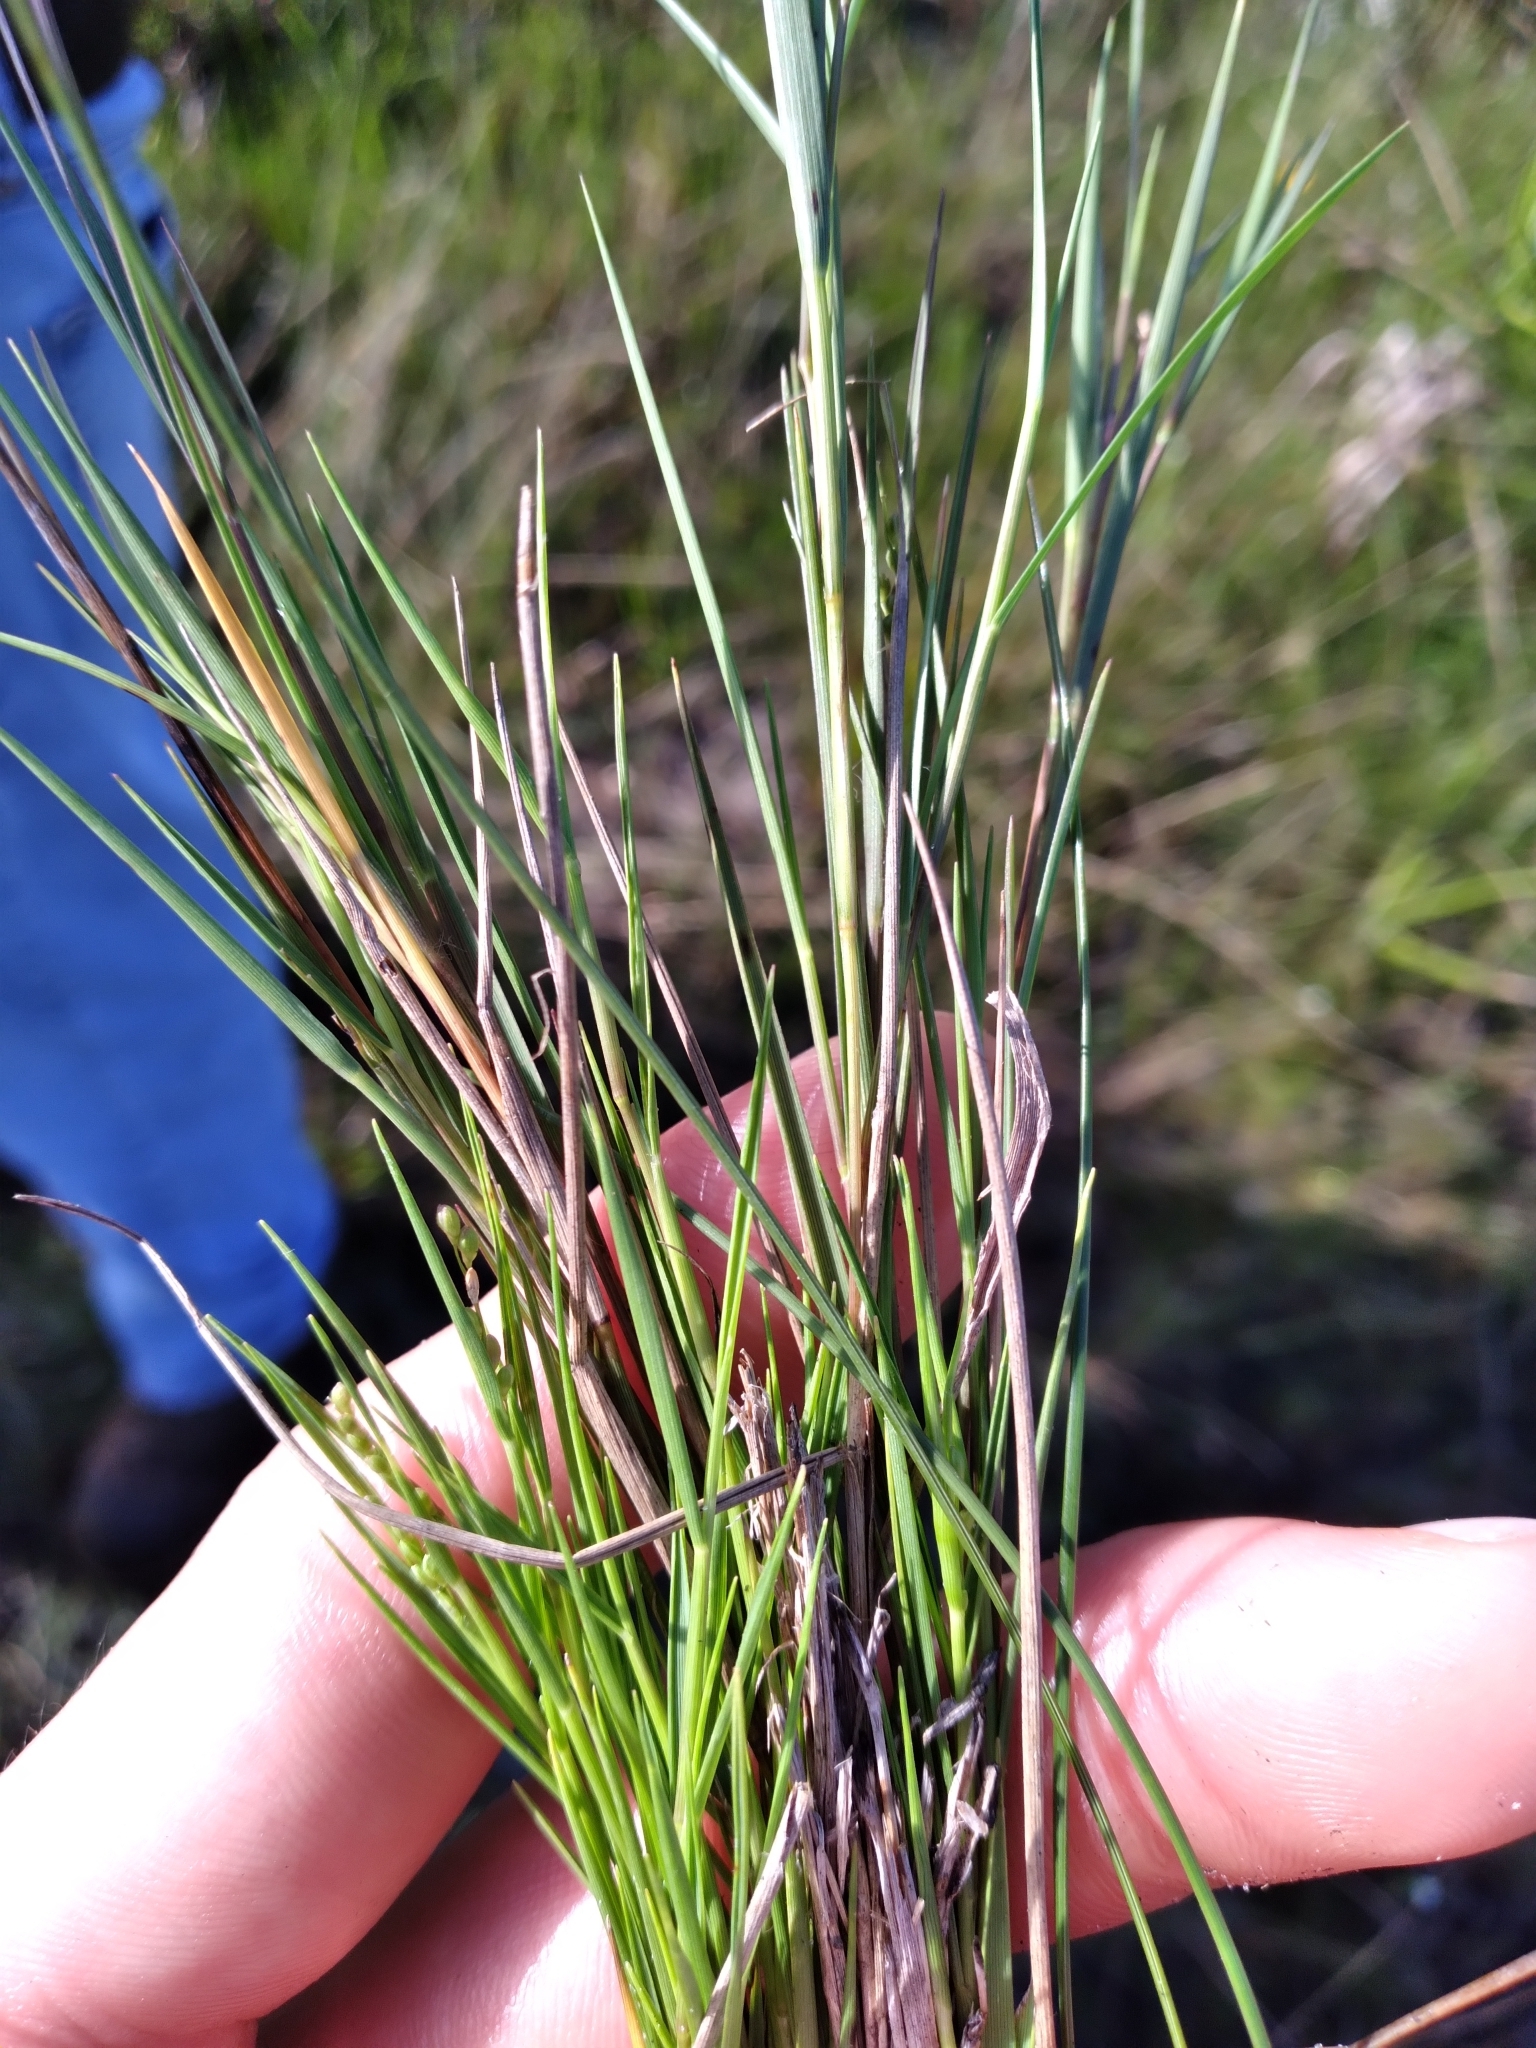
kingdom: Plantae
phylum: Tracheophyta
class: Liliopsida
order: Poales
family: Poaceae
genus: Dichanthelium
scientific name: Dichanthelium neuranthum
